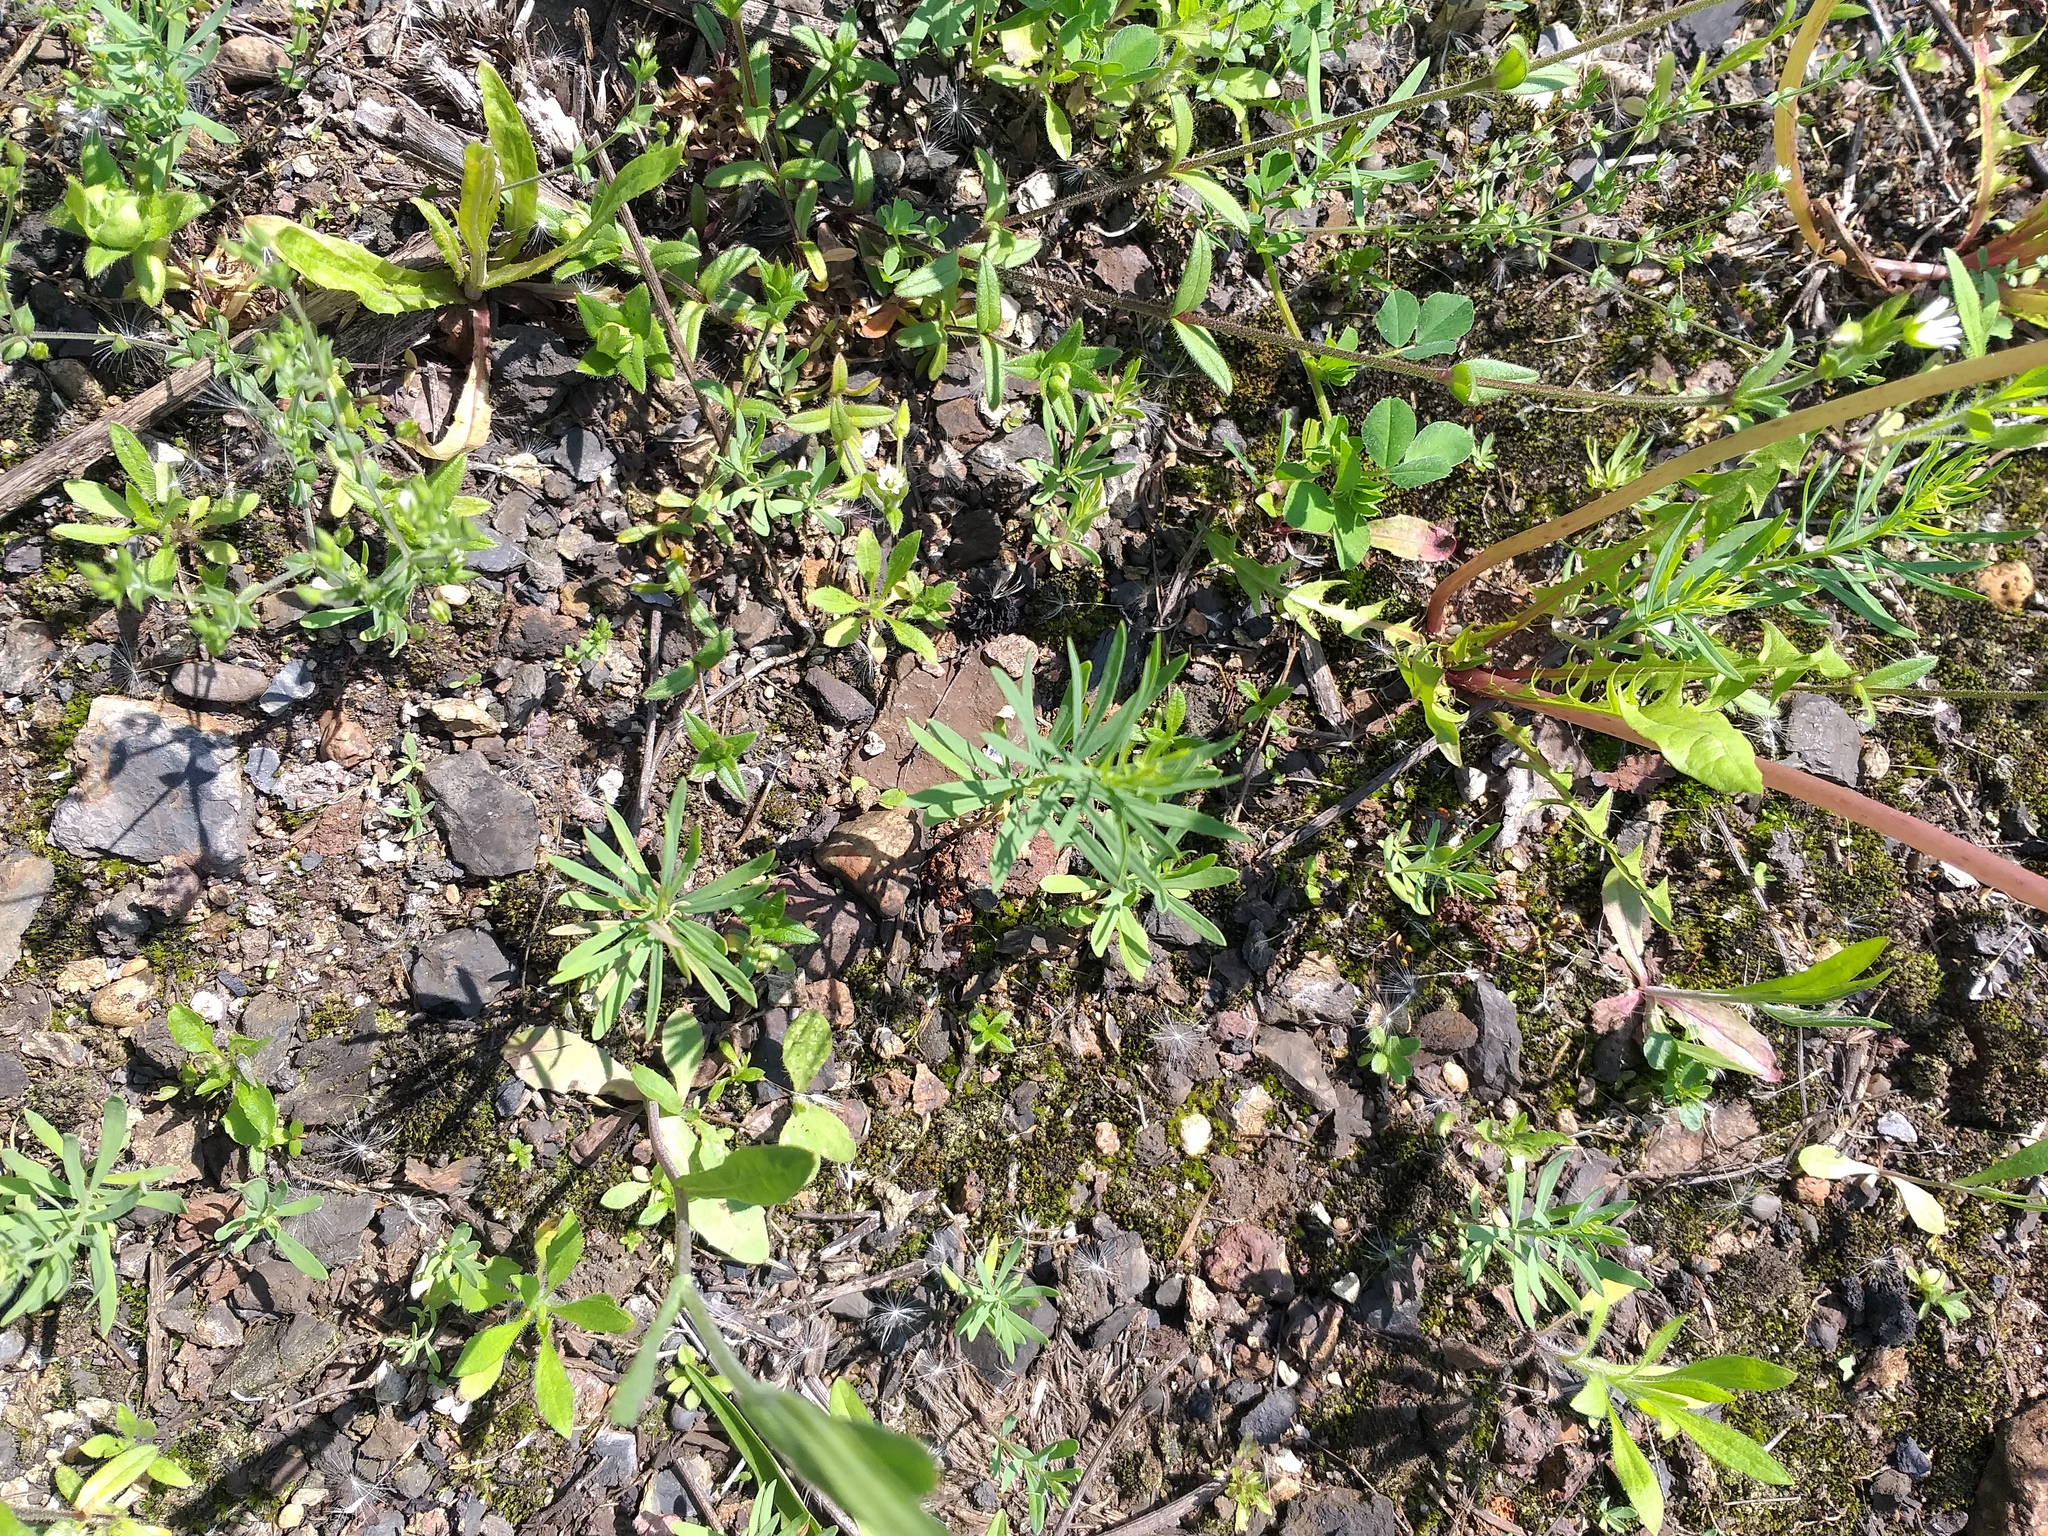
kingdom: Plantae
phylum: Tracheophyta
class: Magnoliopsida
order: Lamiales
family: Plantaginaceae
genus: Linaria
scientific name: Linaria vulgaris
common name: Butter and eggs
